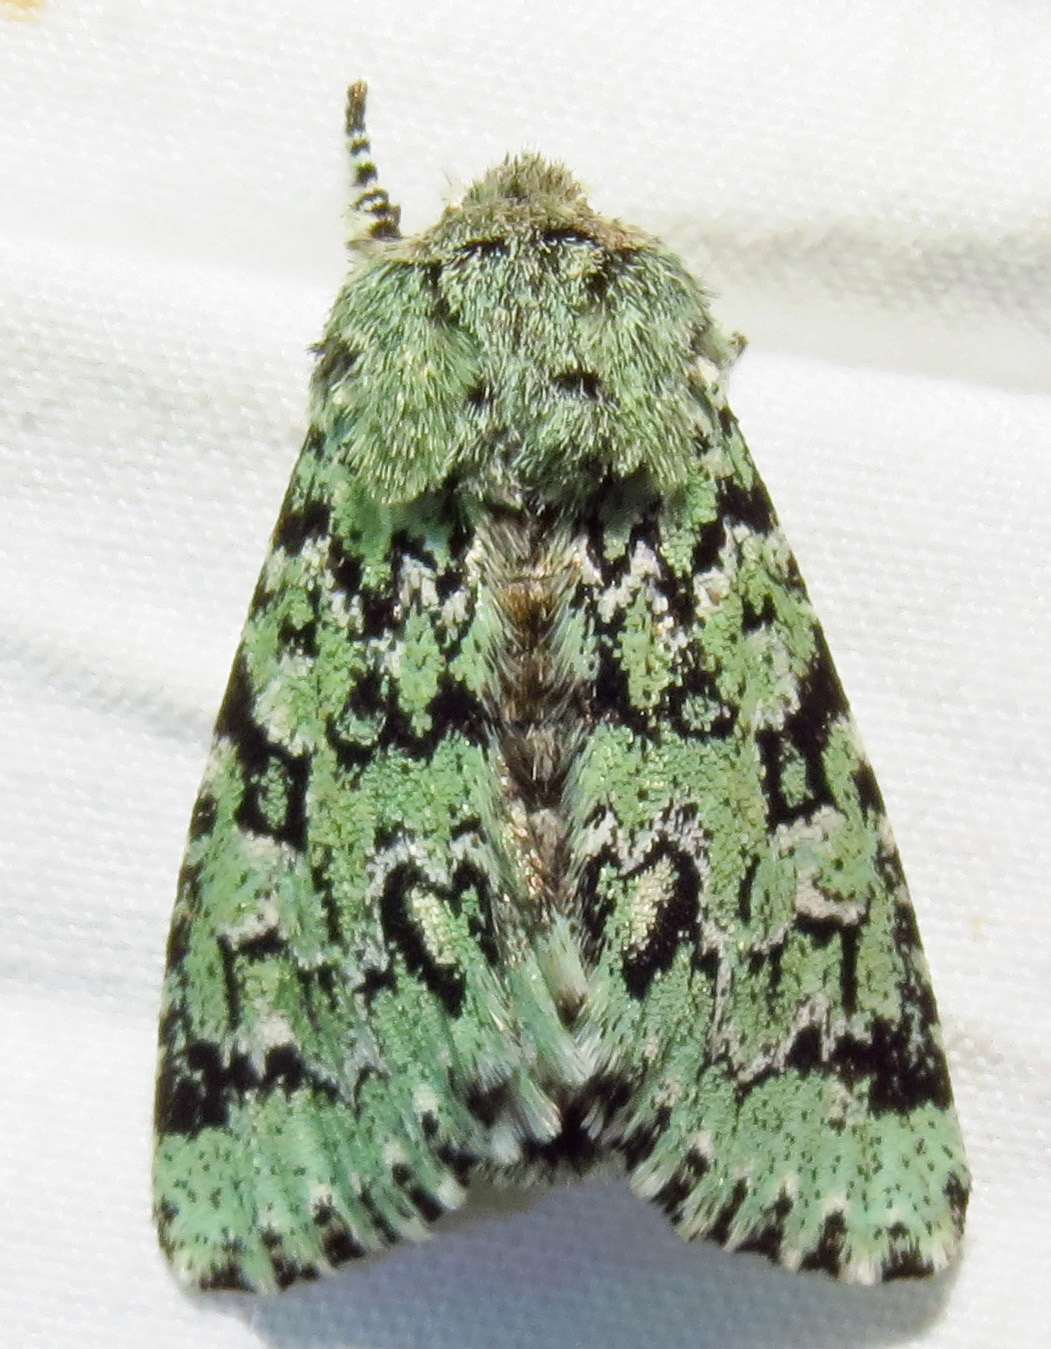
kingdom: Animalia
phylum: Arthropoda
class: Insecta
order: Lepidoptera
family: Noctuidae
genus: Feralia
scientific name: Feralia major
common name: Major sallow
